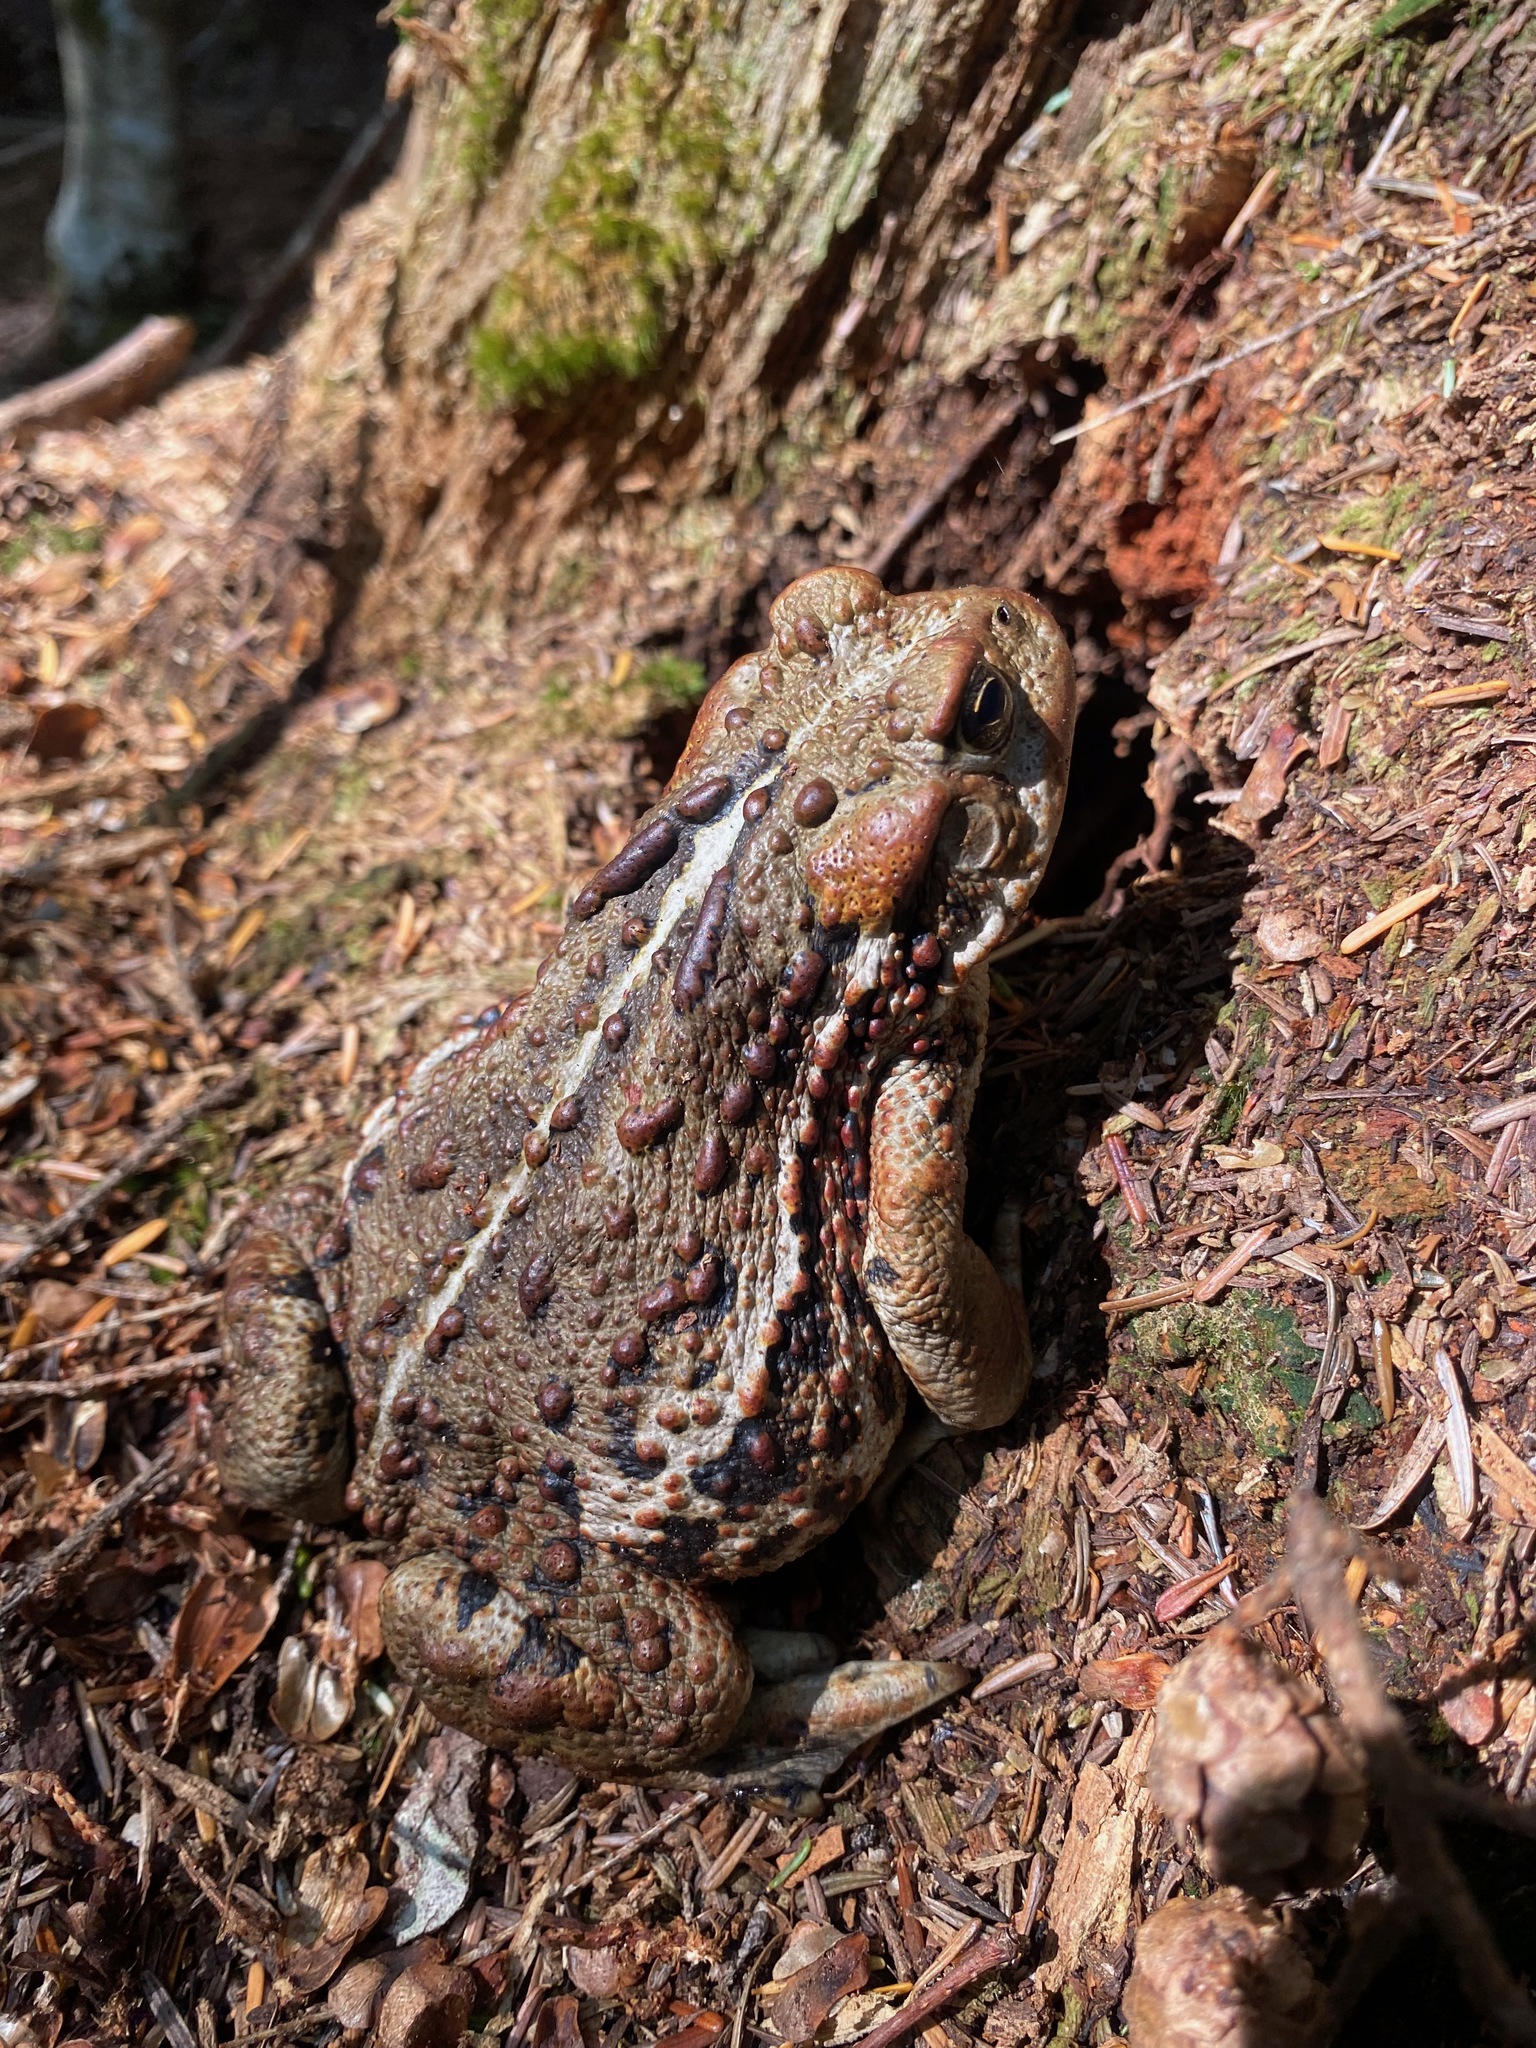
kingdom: Animalia
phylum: Chordata
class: Amphibia
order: Anura
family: Bufonidae
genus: Anaxyrus
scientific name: Anaxyrus boreas
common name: Western toad
